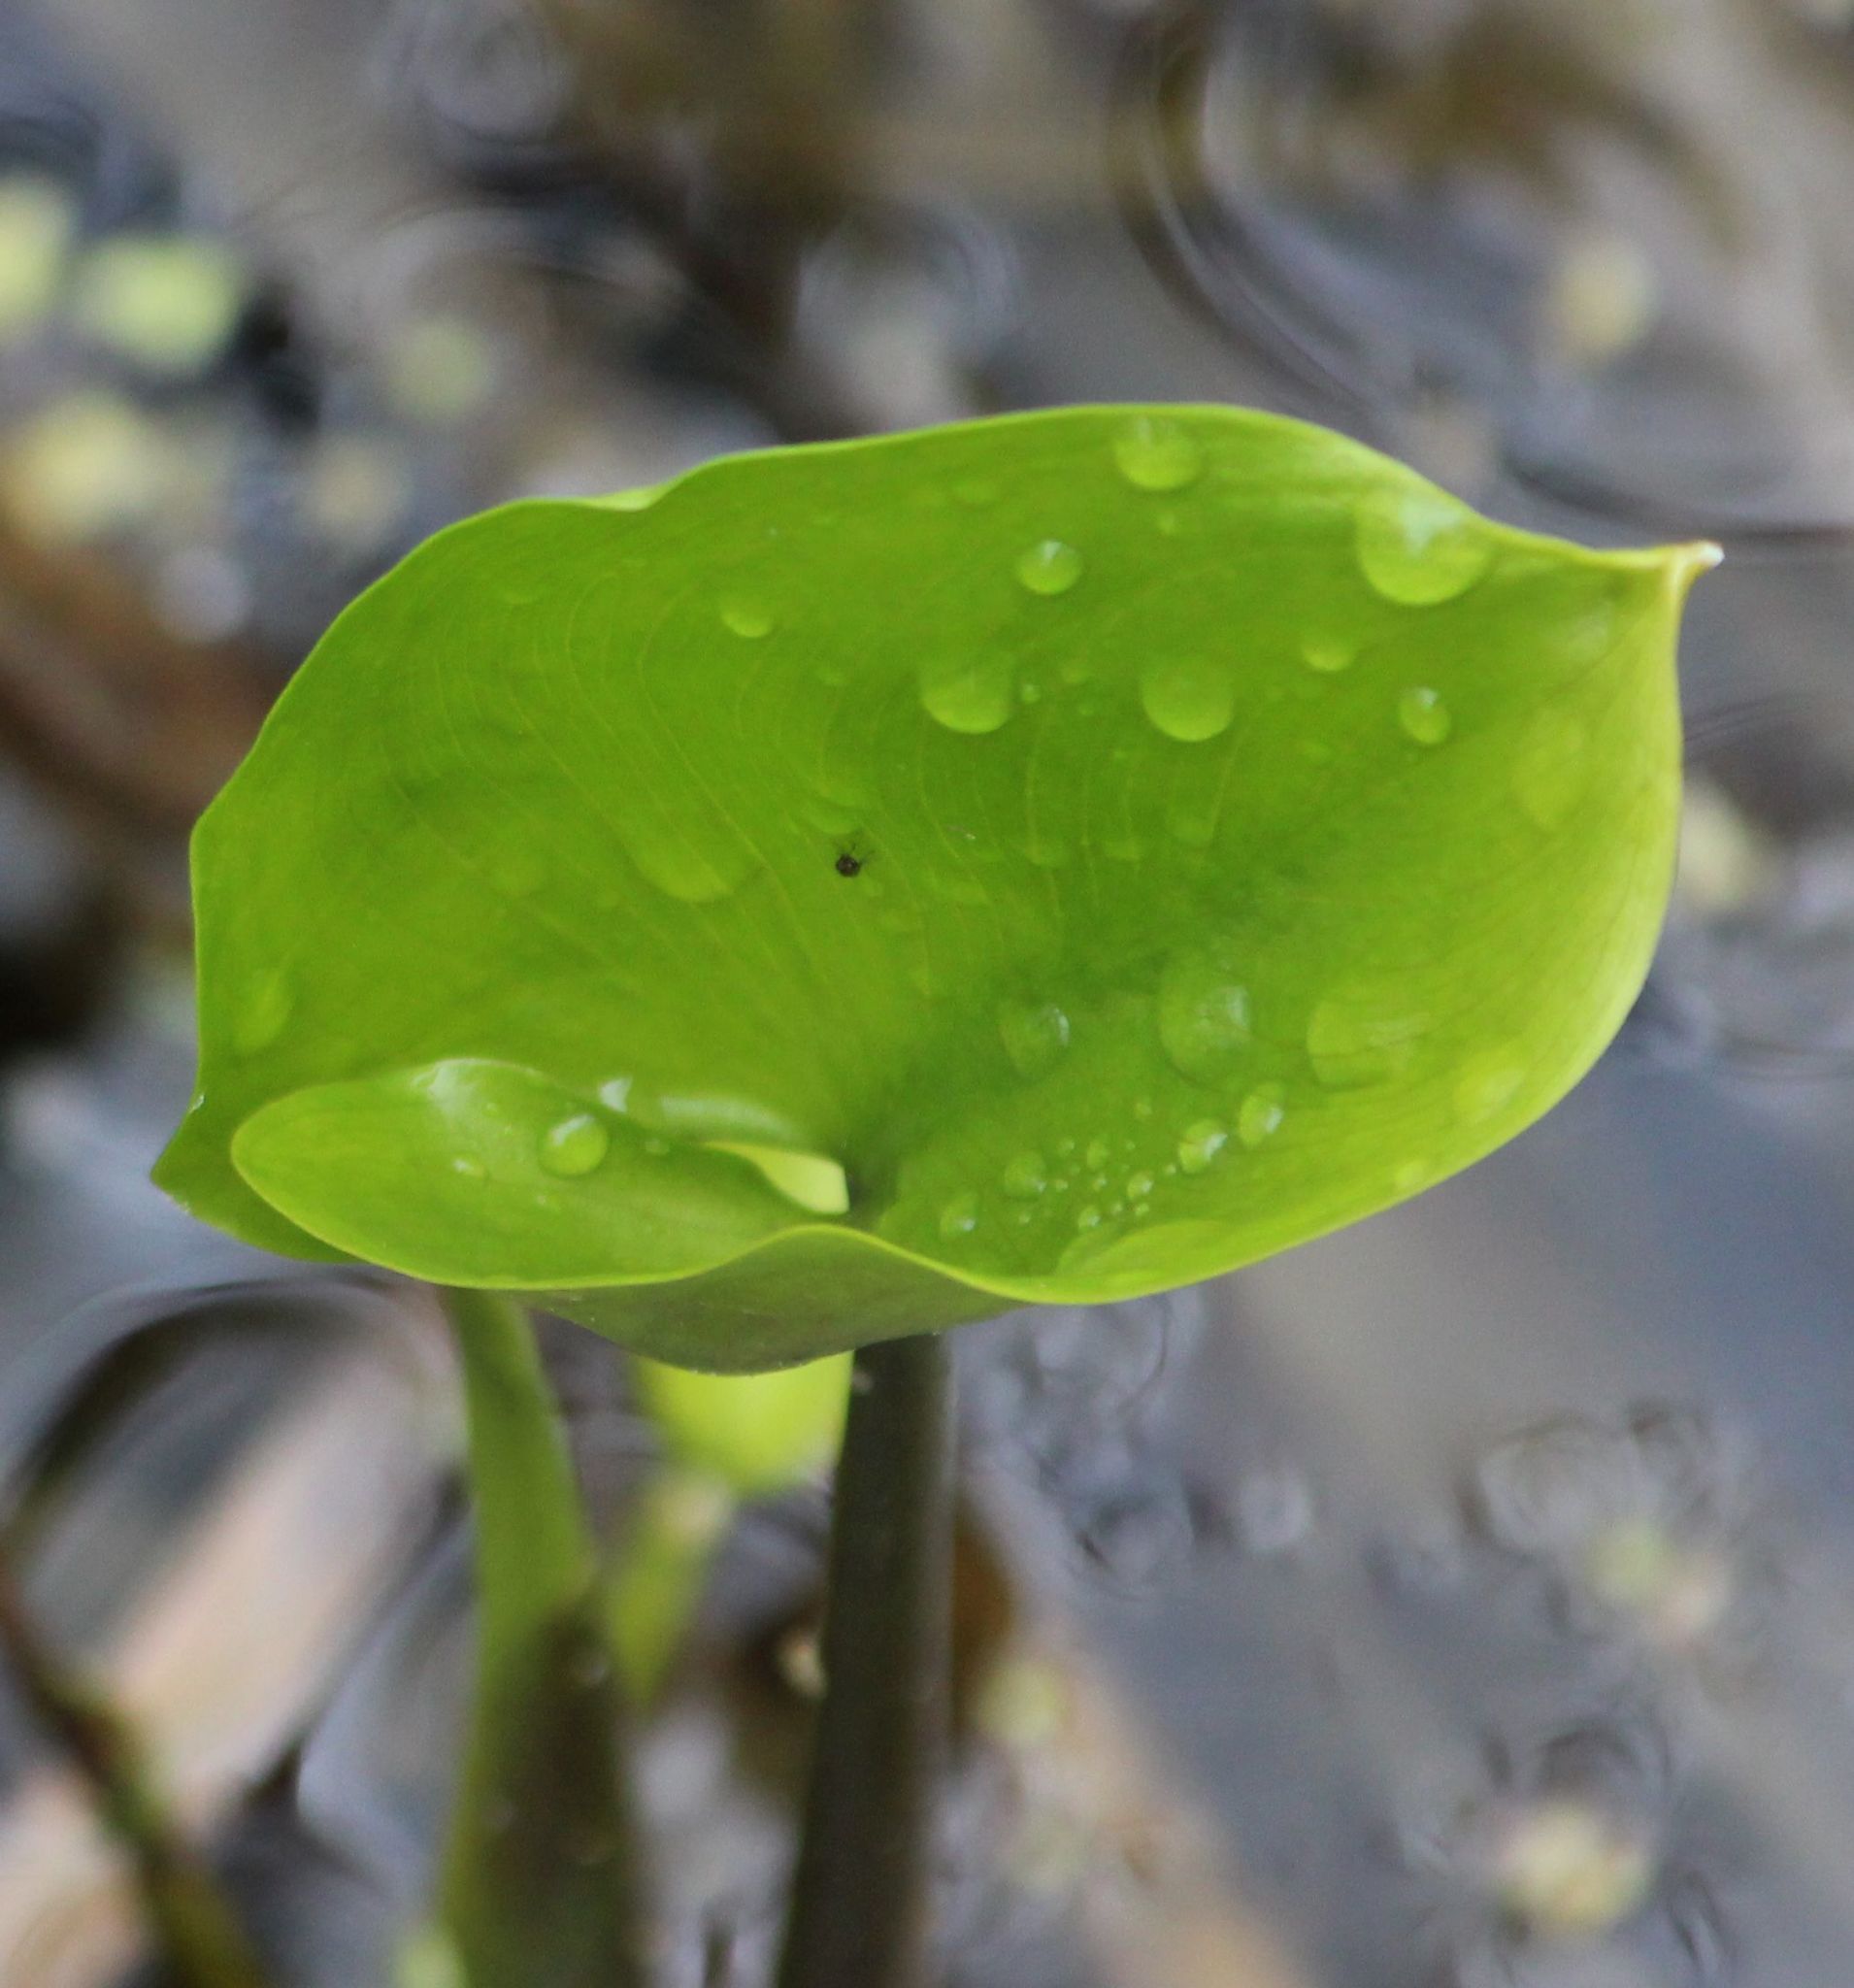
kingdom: Plantae
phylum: Tracheophyta
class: Liliopsida
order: Alismatales
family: Araceae
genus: Calla
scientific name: Calla palustris
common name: Bog arum
